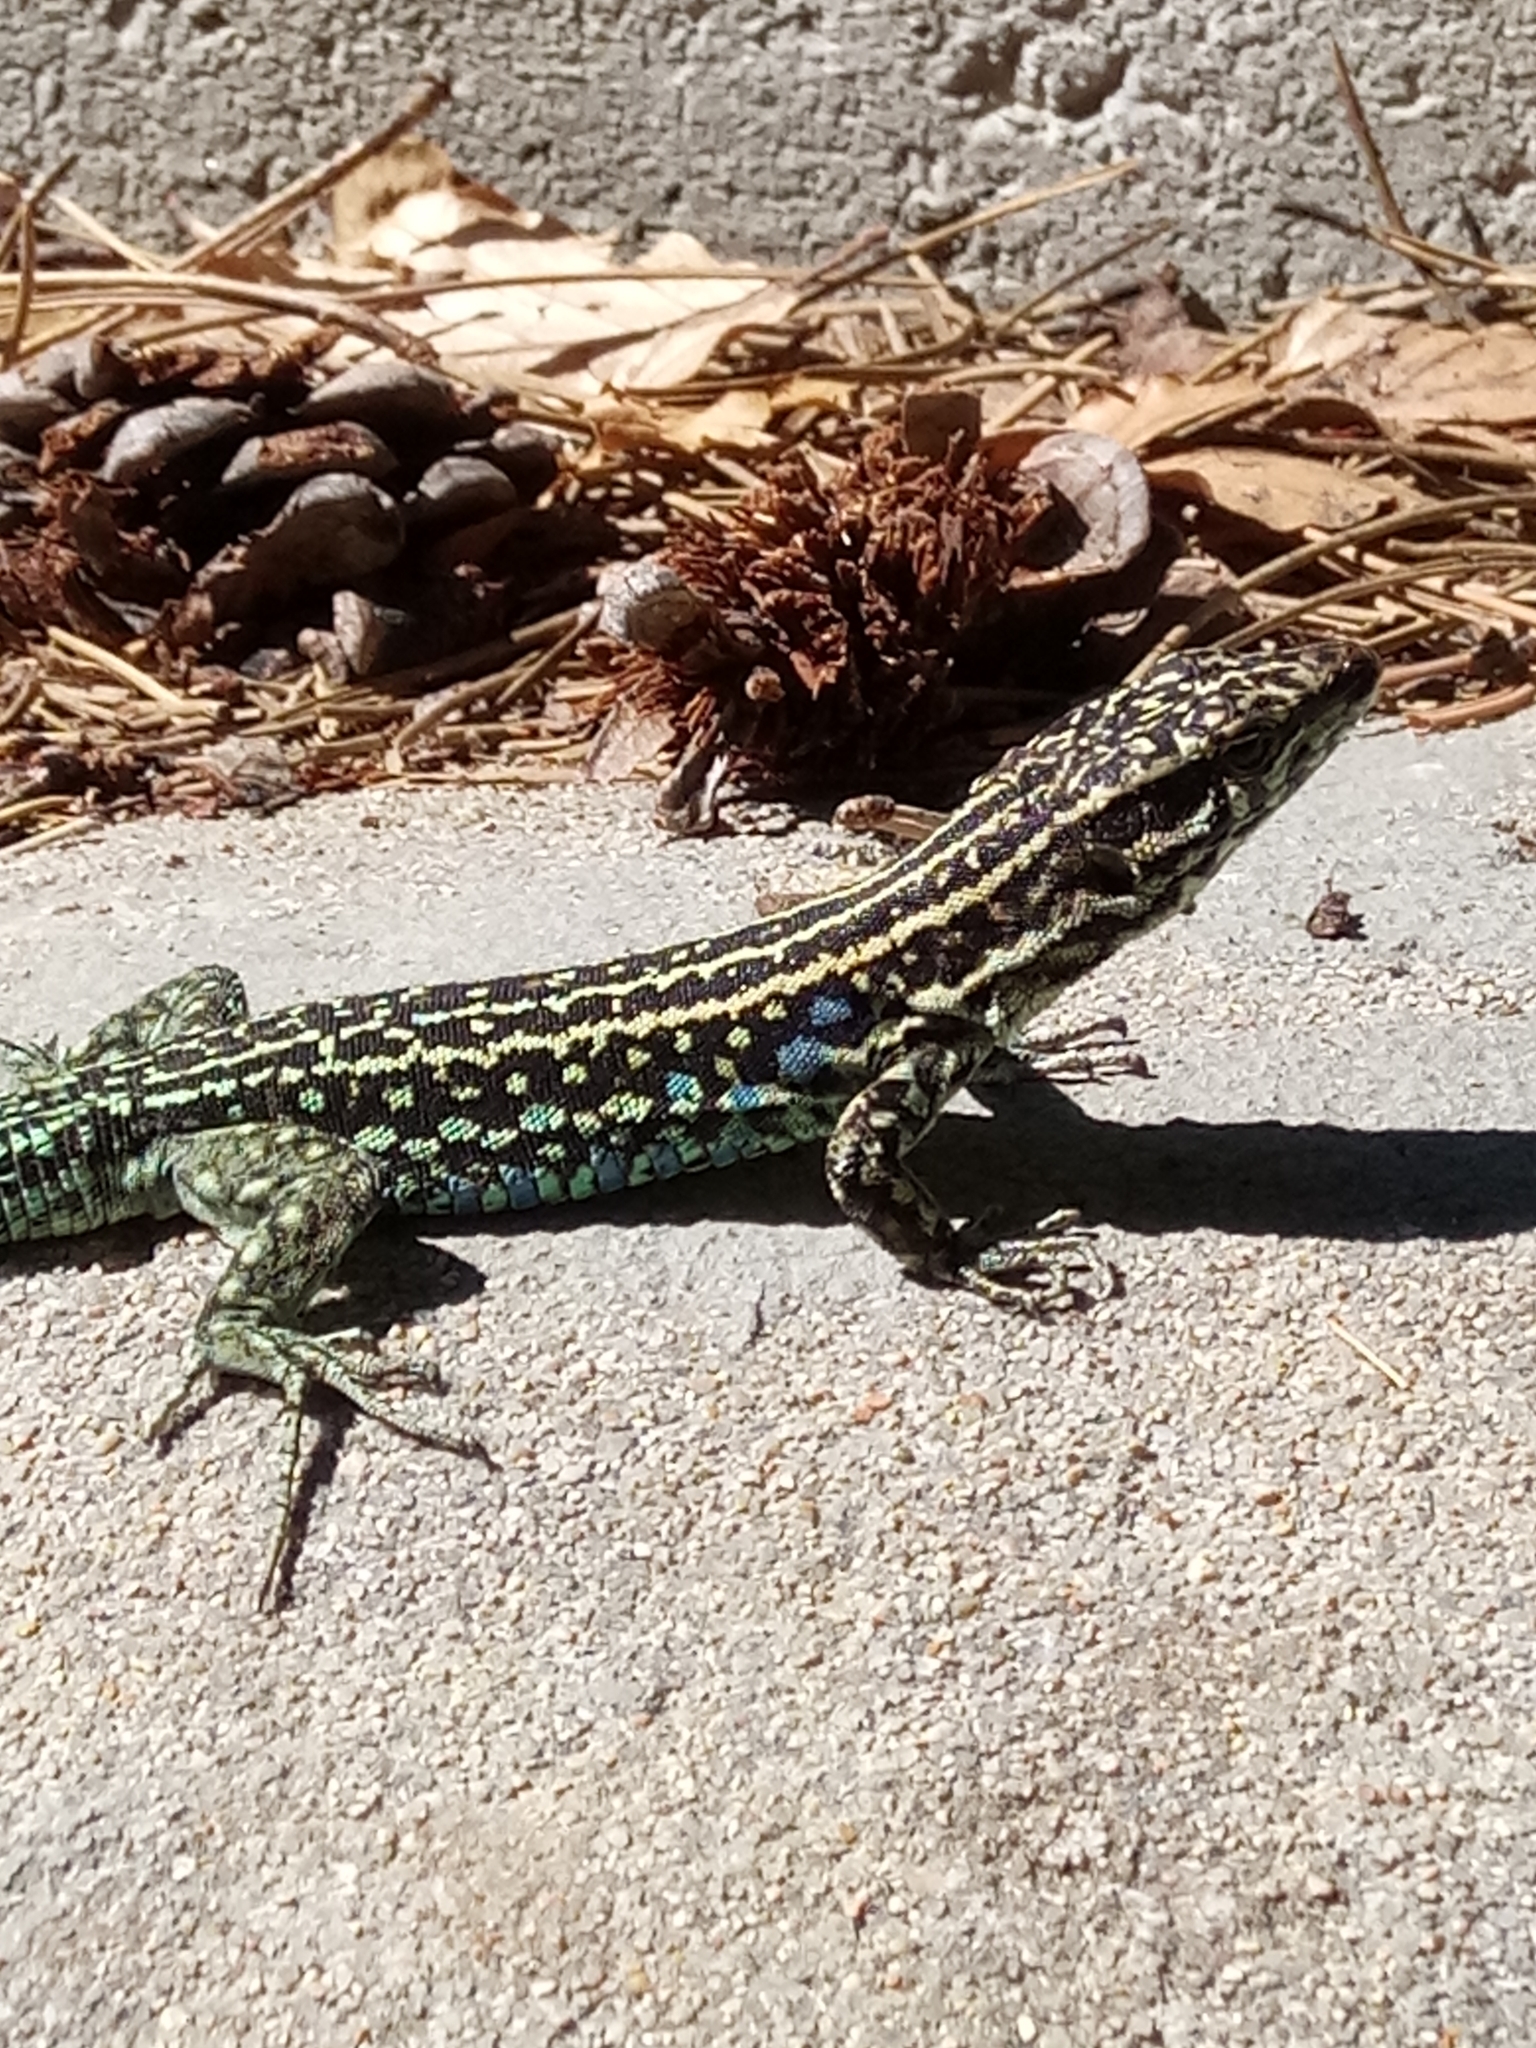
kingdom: Animalia
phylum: Chordata
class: Squamata
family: Lacertidae
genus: Podarcis
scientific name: Podarcis tiliguerta
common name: Tyrrhenian wall lizard
